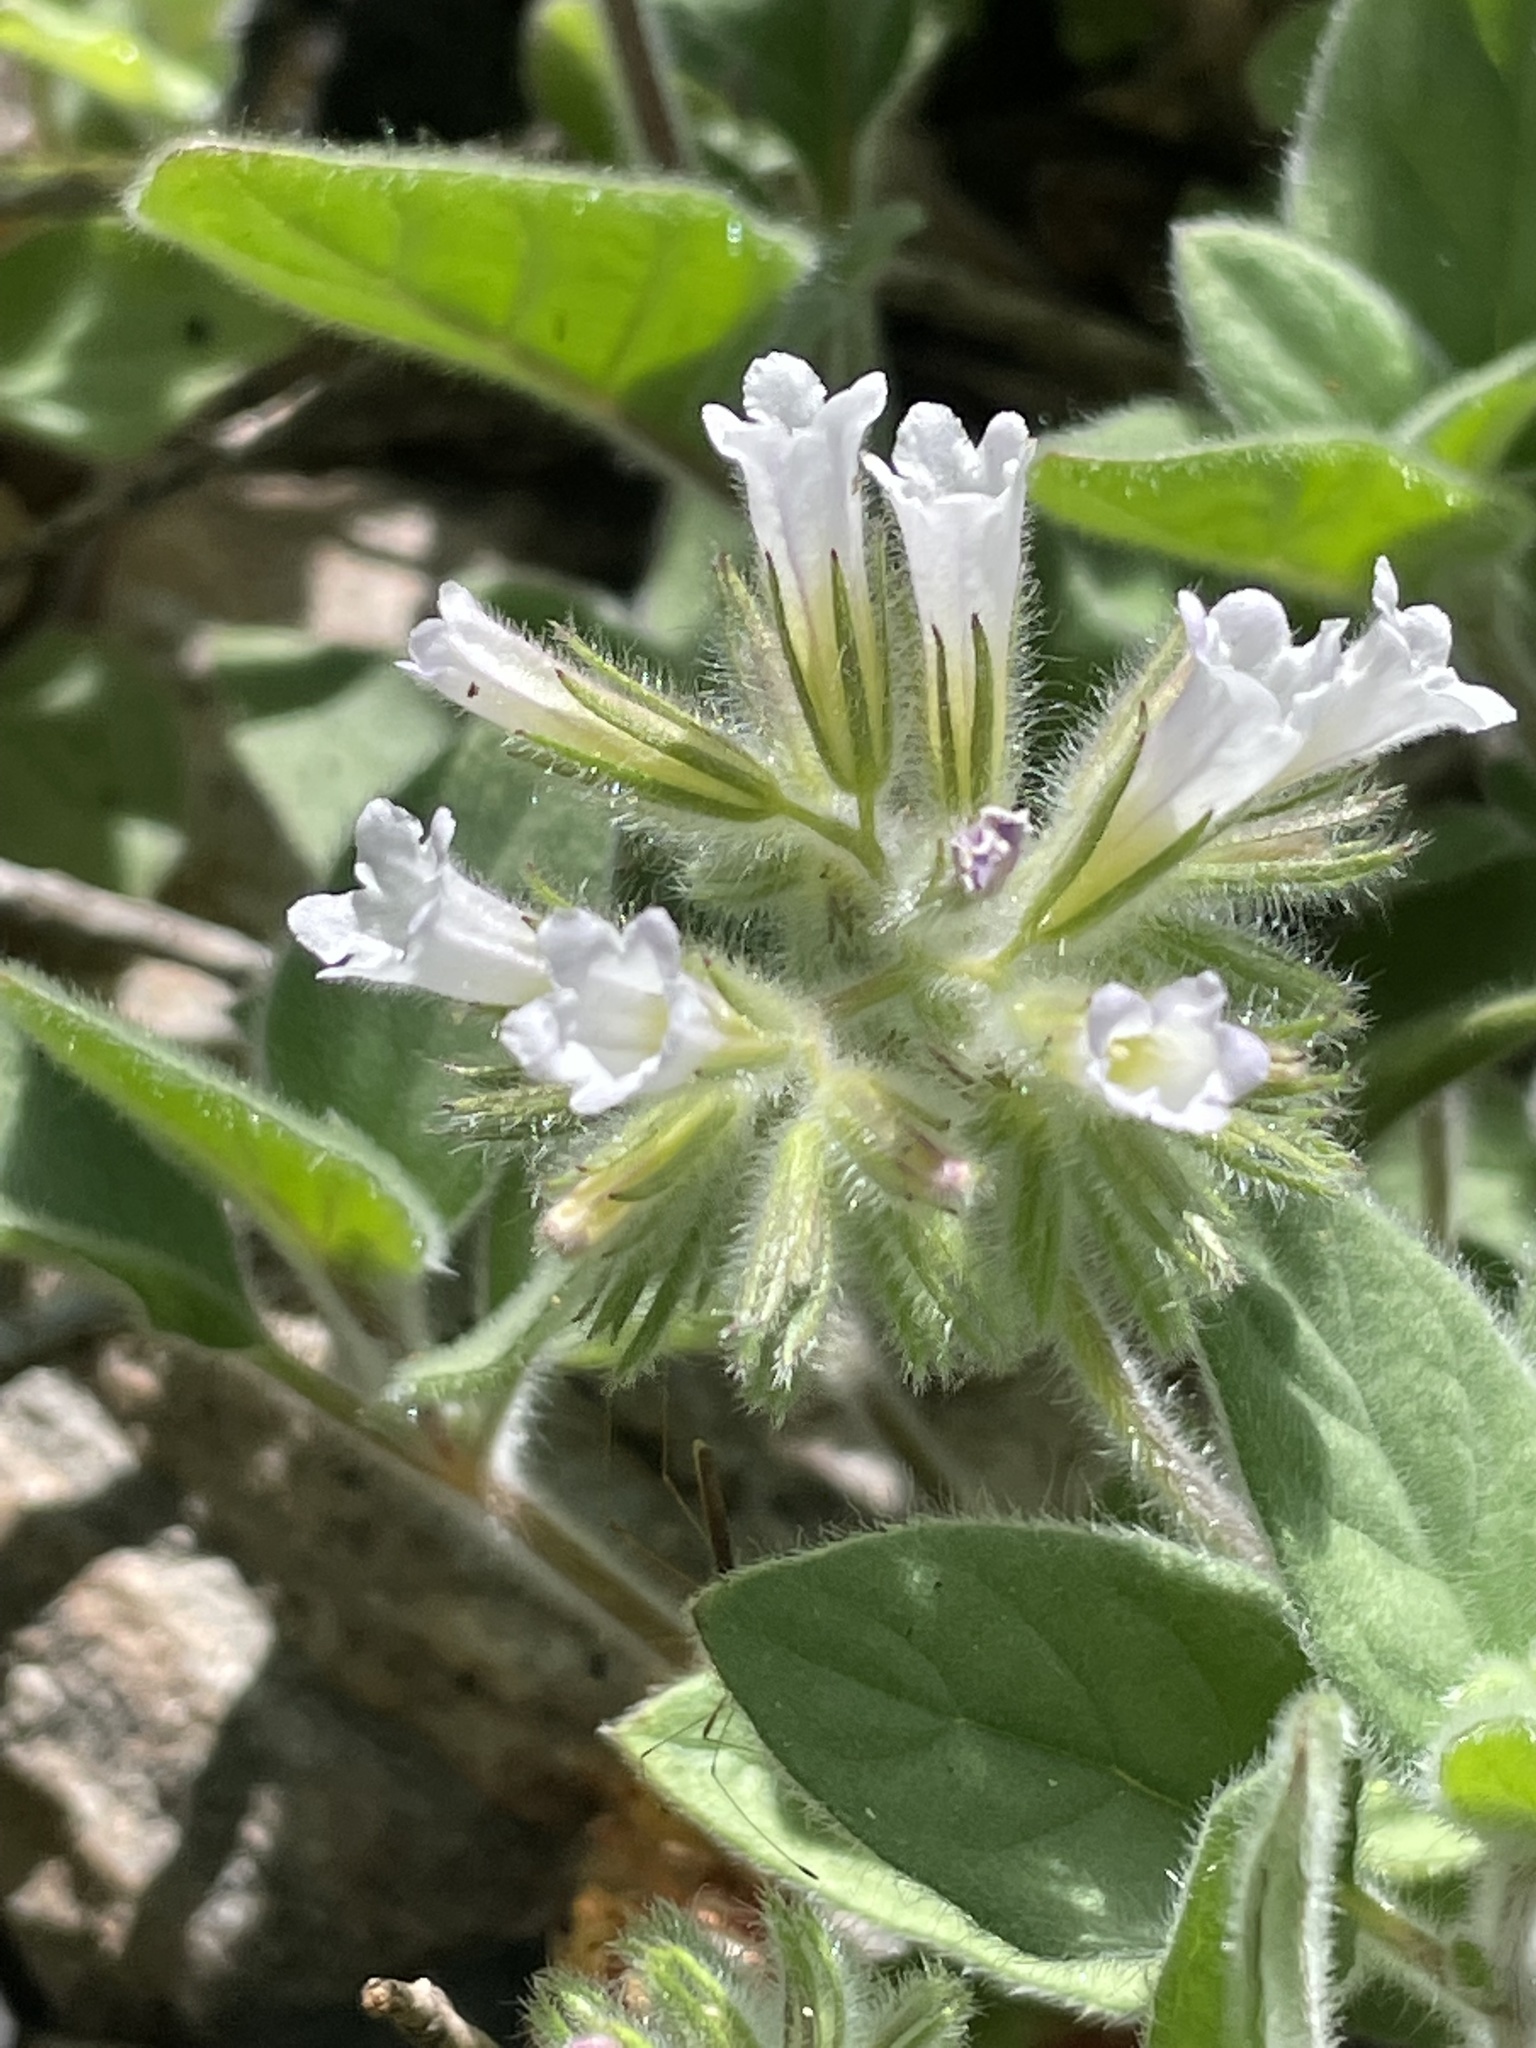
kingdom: Plantae
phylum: Tracheophyta
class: Magnoliopsida
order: Boraginales
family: Hydrophyllaceae
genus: Draperia
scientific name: Draperia systyla
